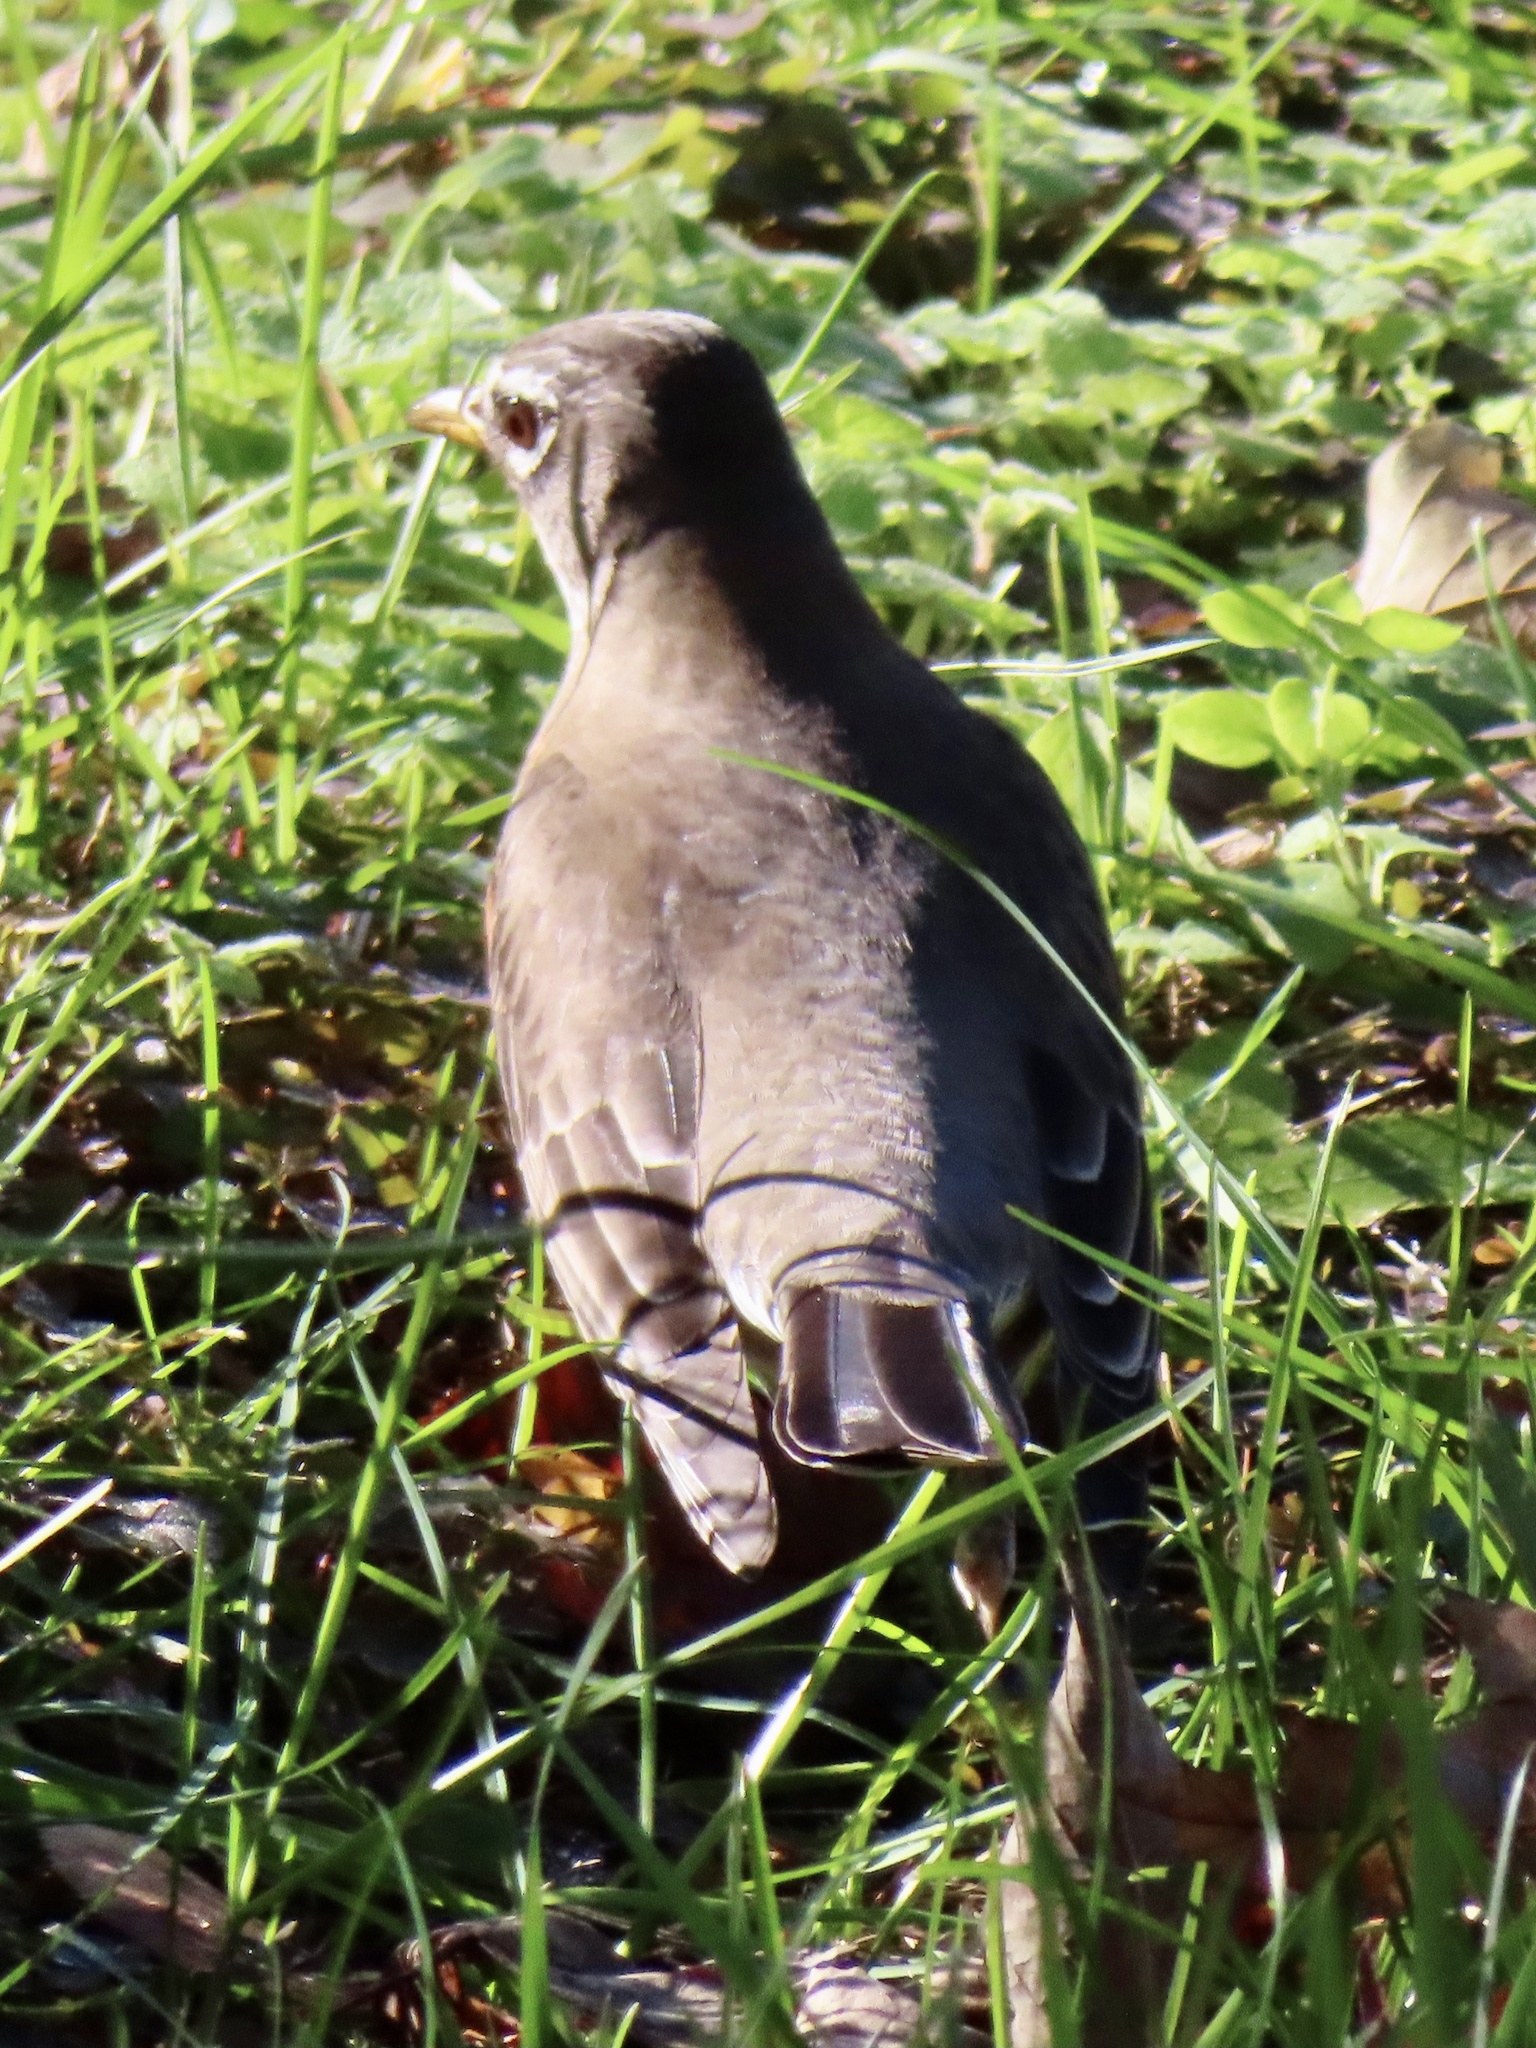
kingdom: Animalia
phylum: Chordata
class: Aves
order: Passeriformes
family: Turdidae
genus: Turdus
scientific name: Turdus migratorius
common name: American robin
